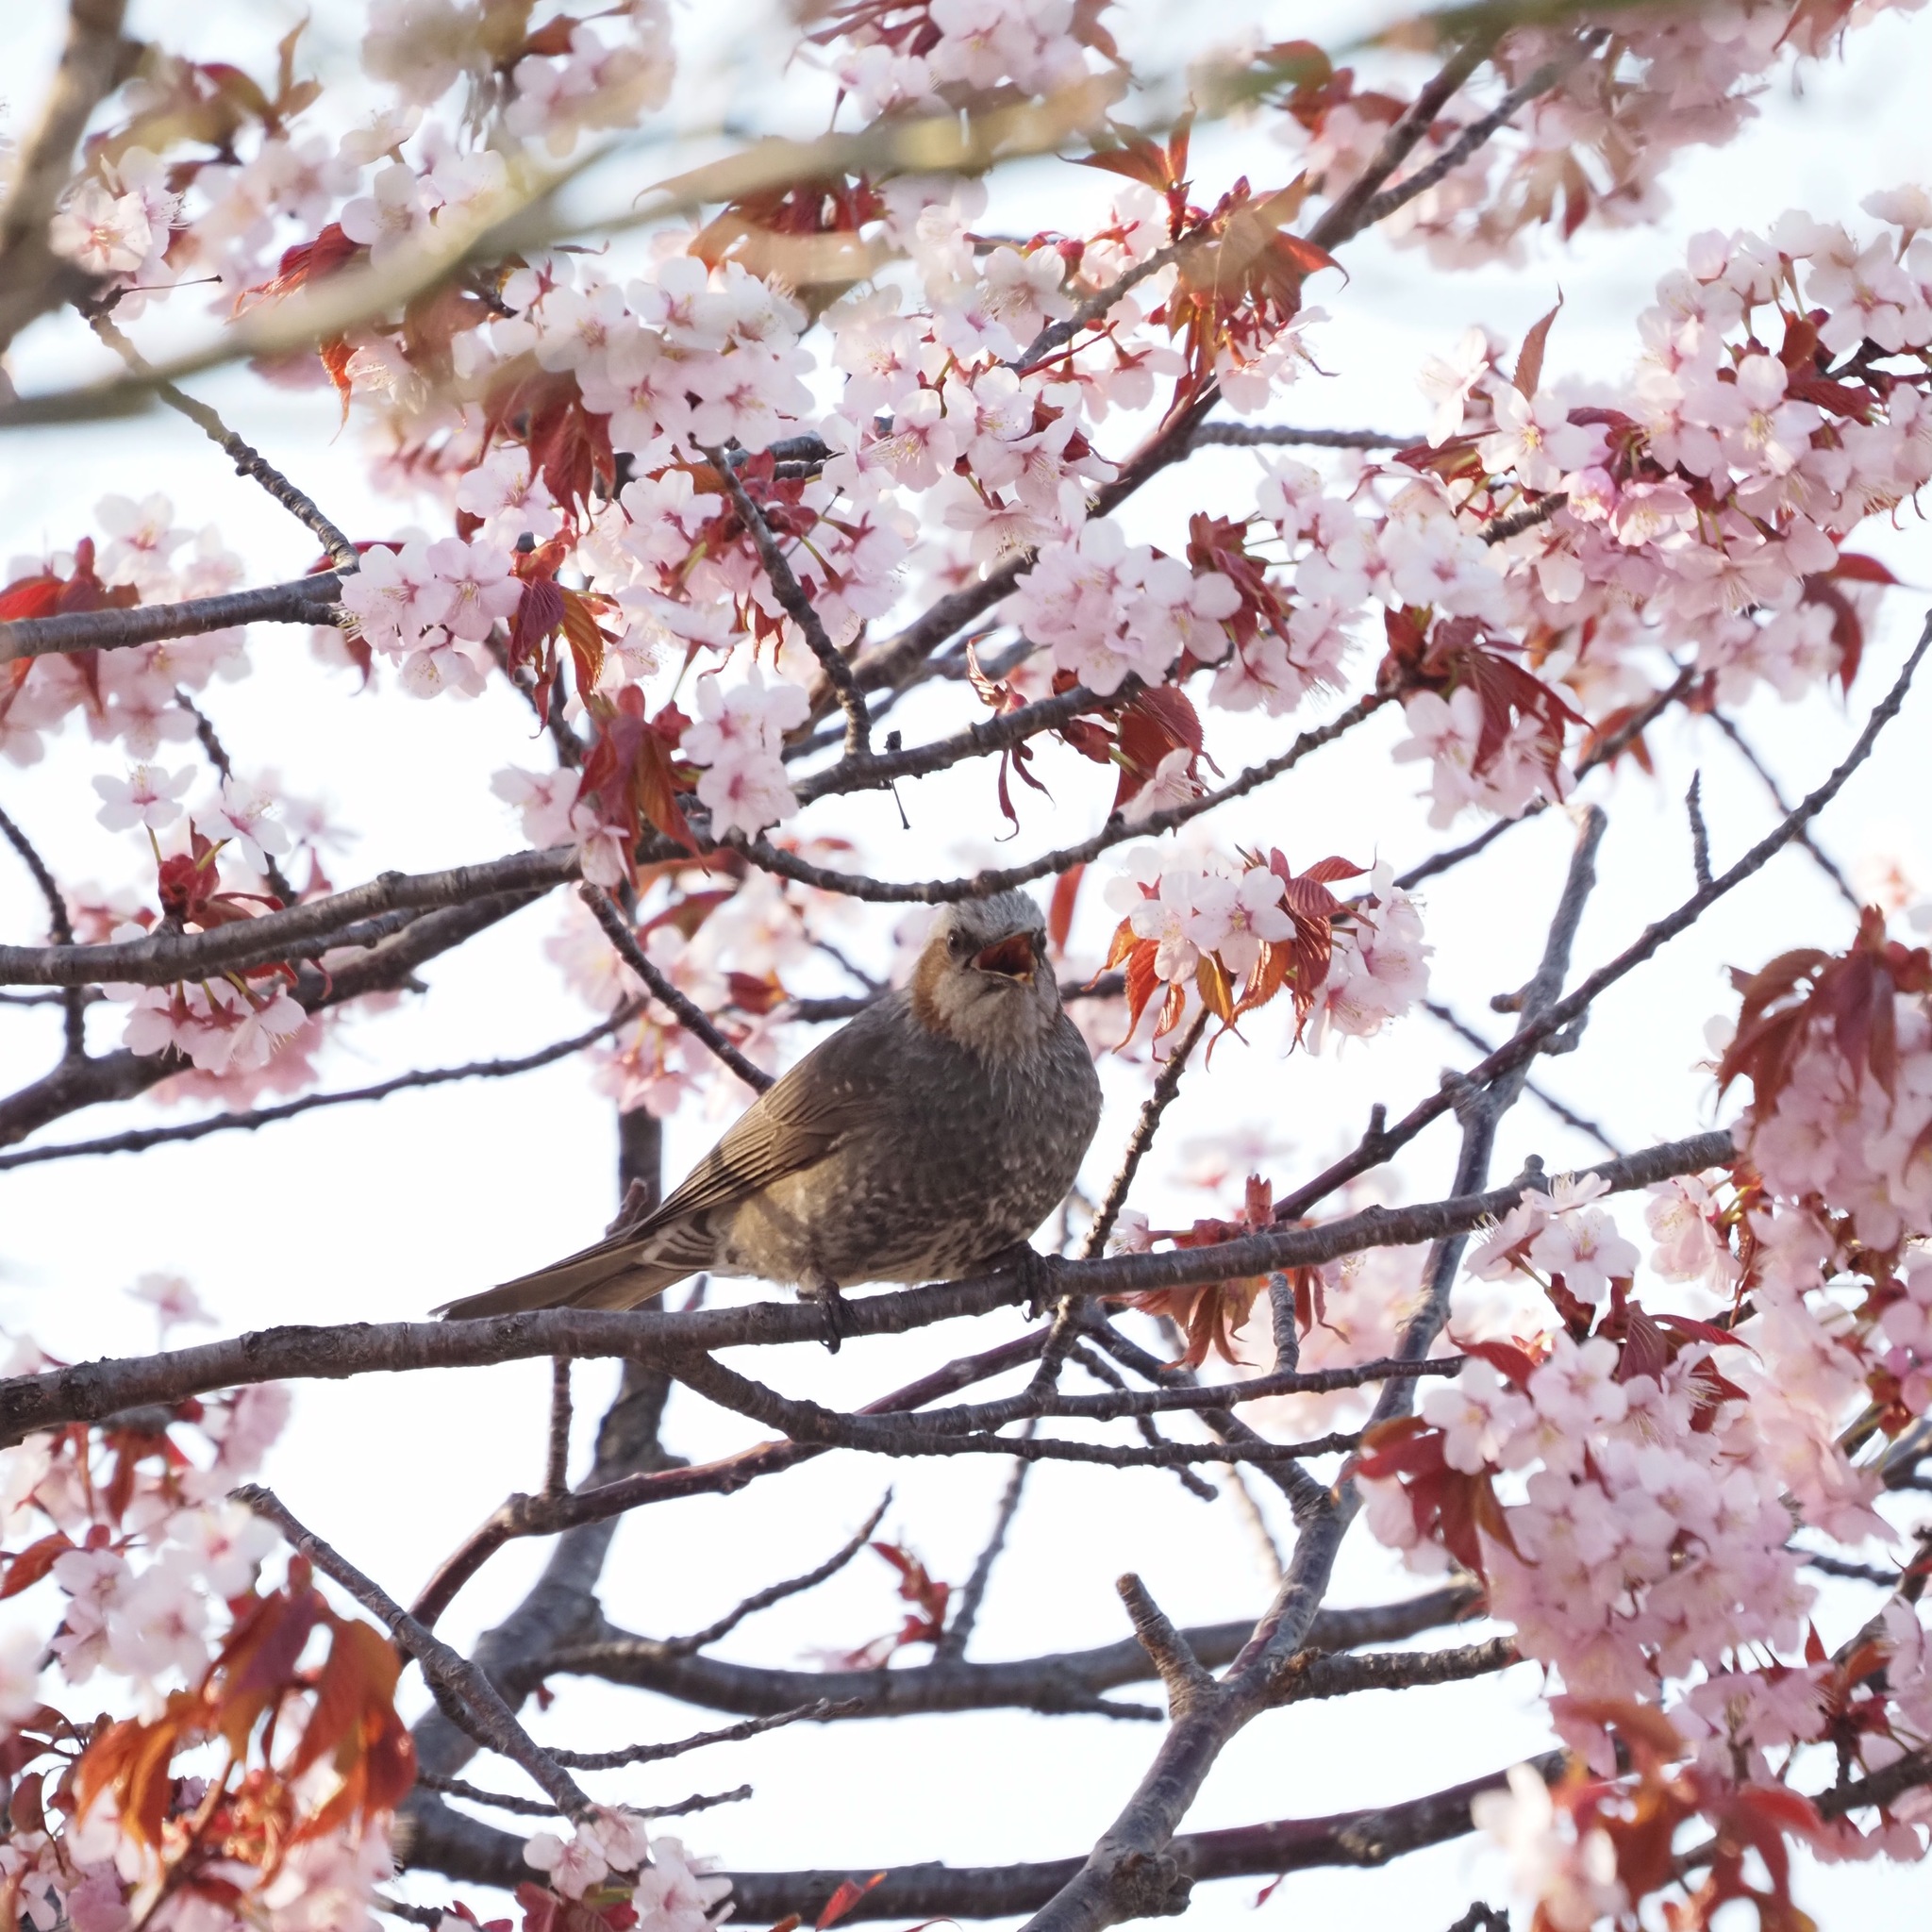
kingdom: Animalia
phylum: Chordata
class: Aves
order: Passeriformes
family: Pycnonotidae
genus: Hypsipetes
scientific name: Hypsipetes amaurotis
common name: Brown-eared bulbul
